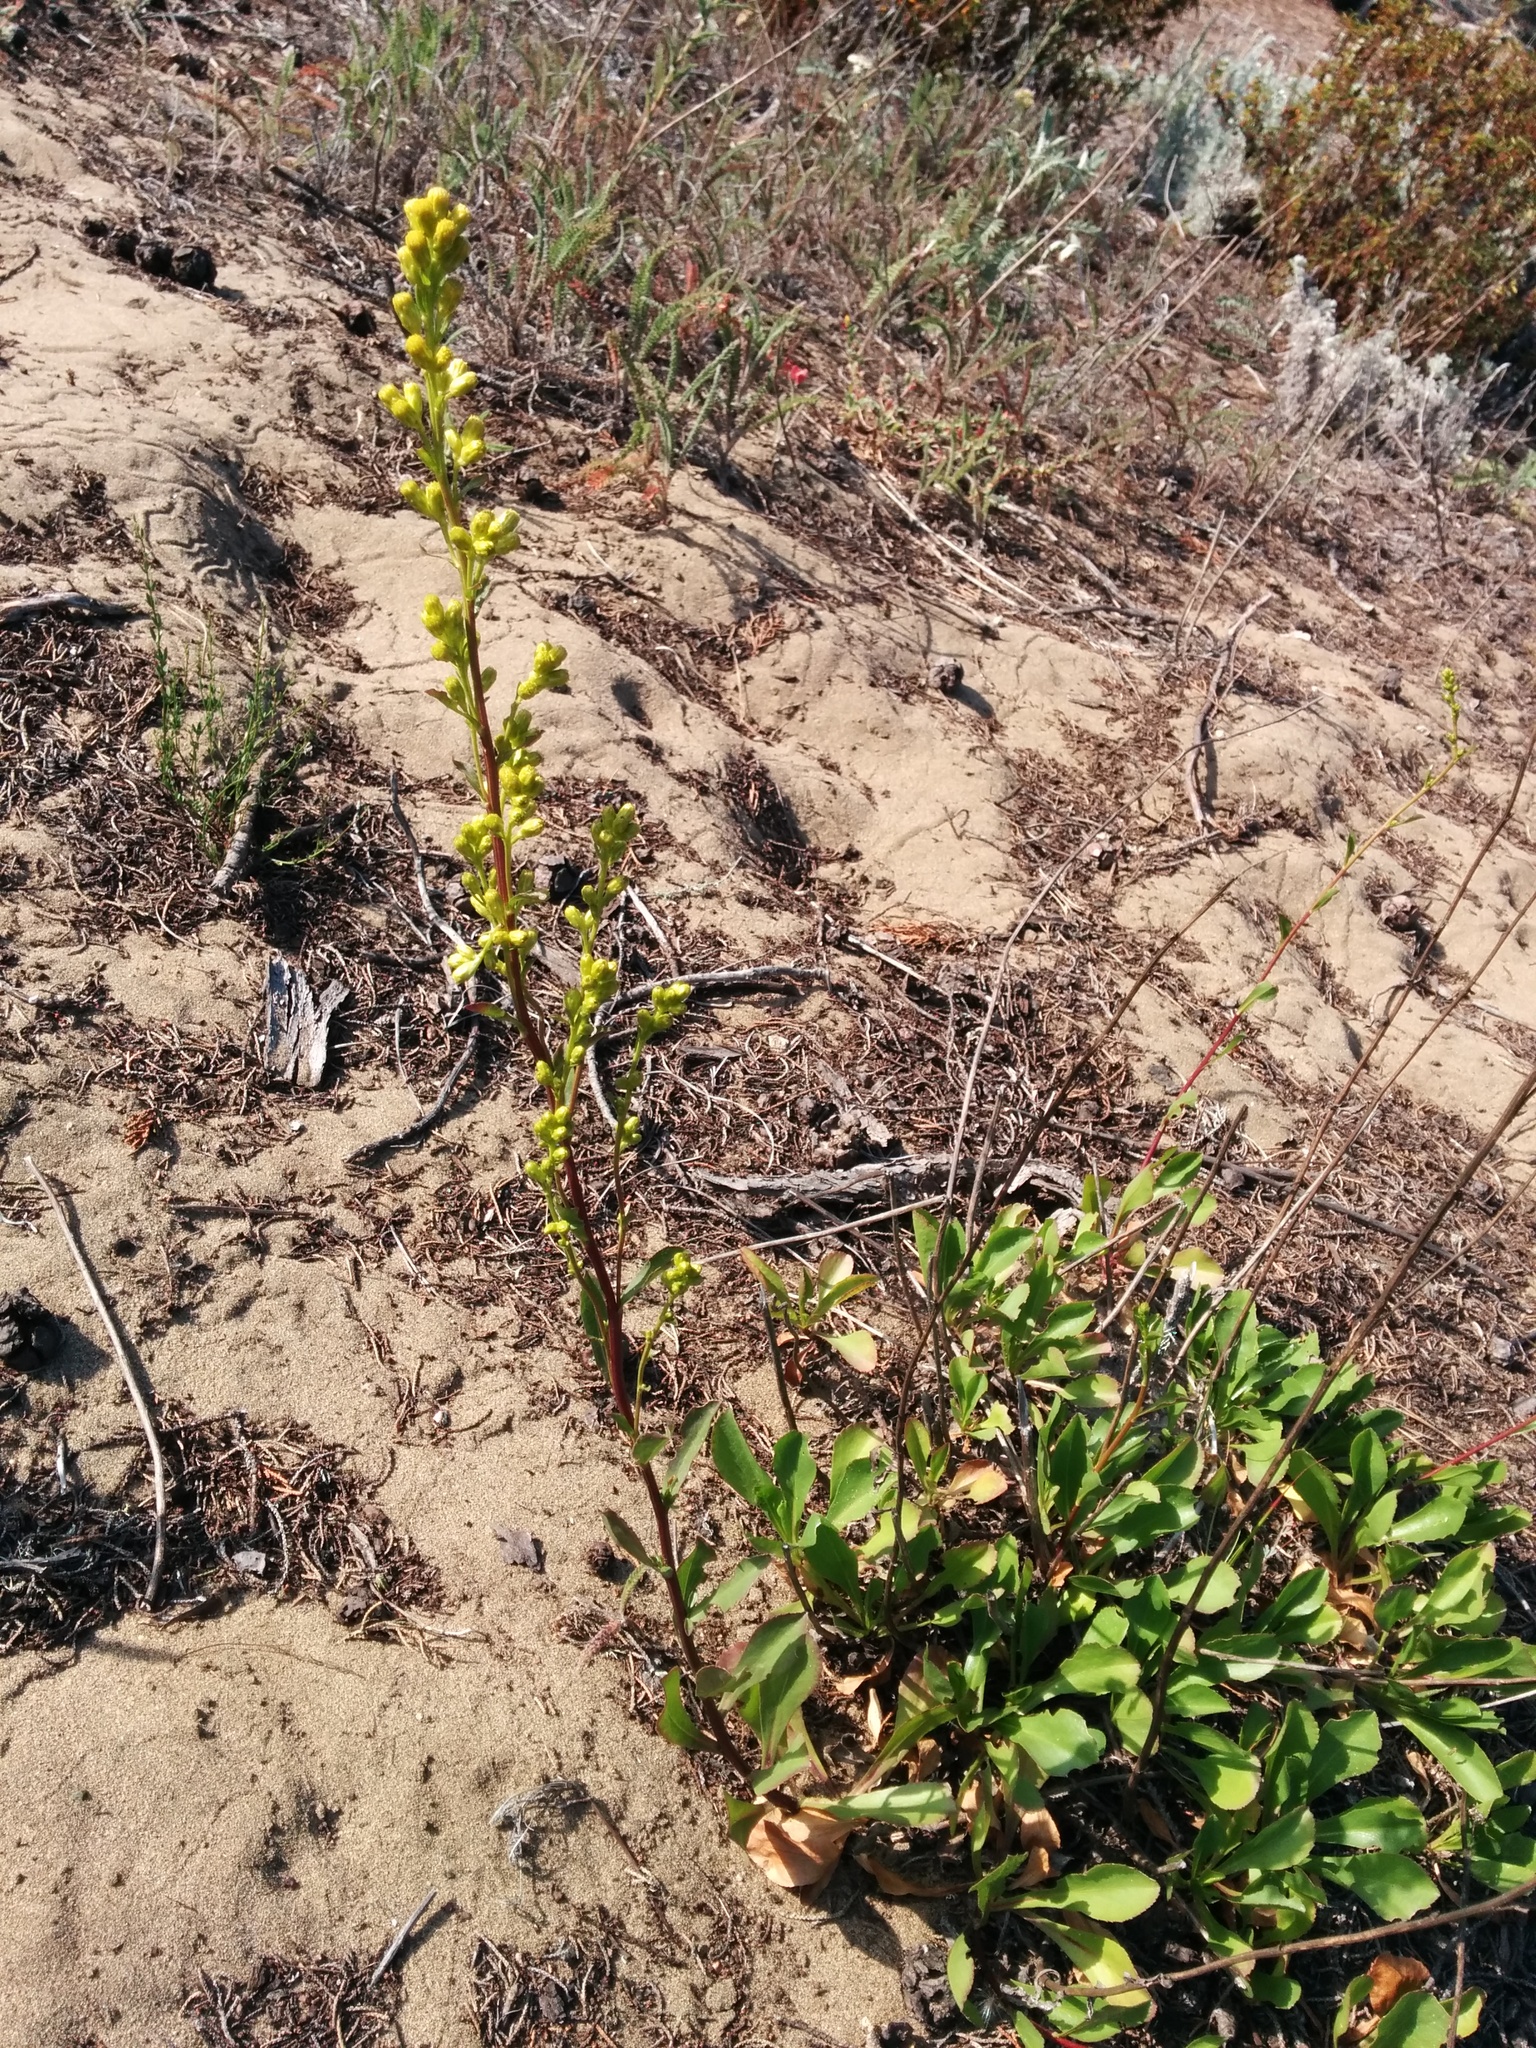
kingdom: Plantae
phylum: Tracheophyta
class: Magnoliopsida
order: Asterales
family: Asteraceae
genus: Solidago
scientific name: Solidago spathulata
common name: Coast goldenrod
